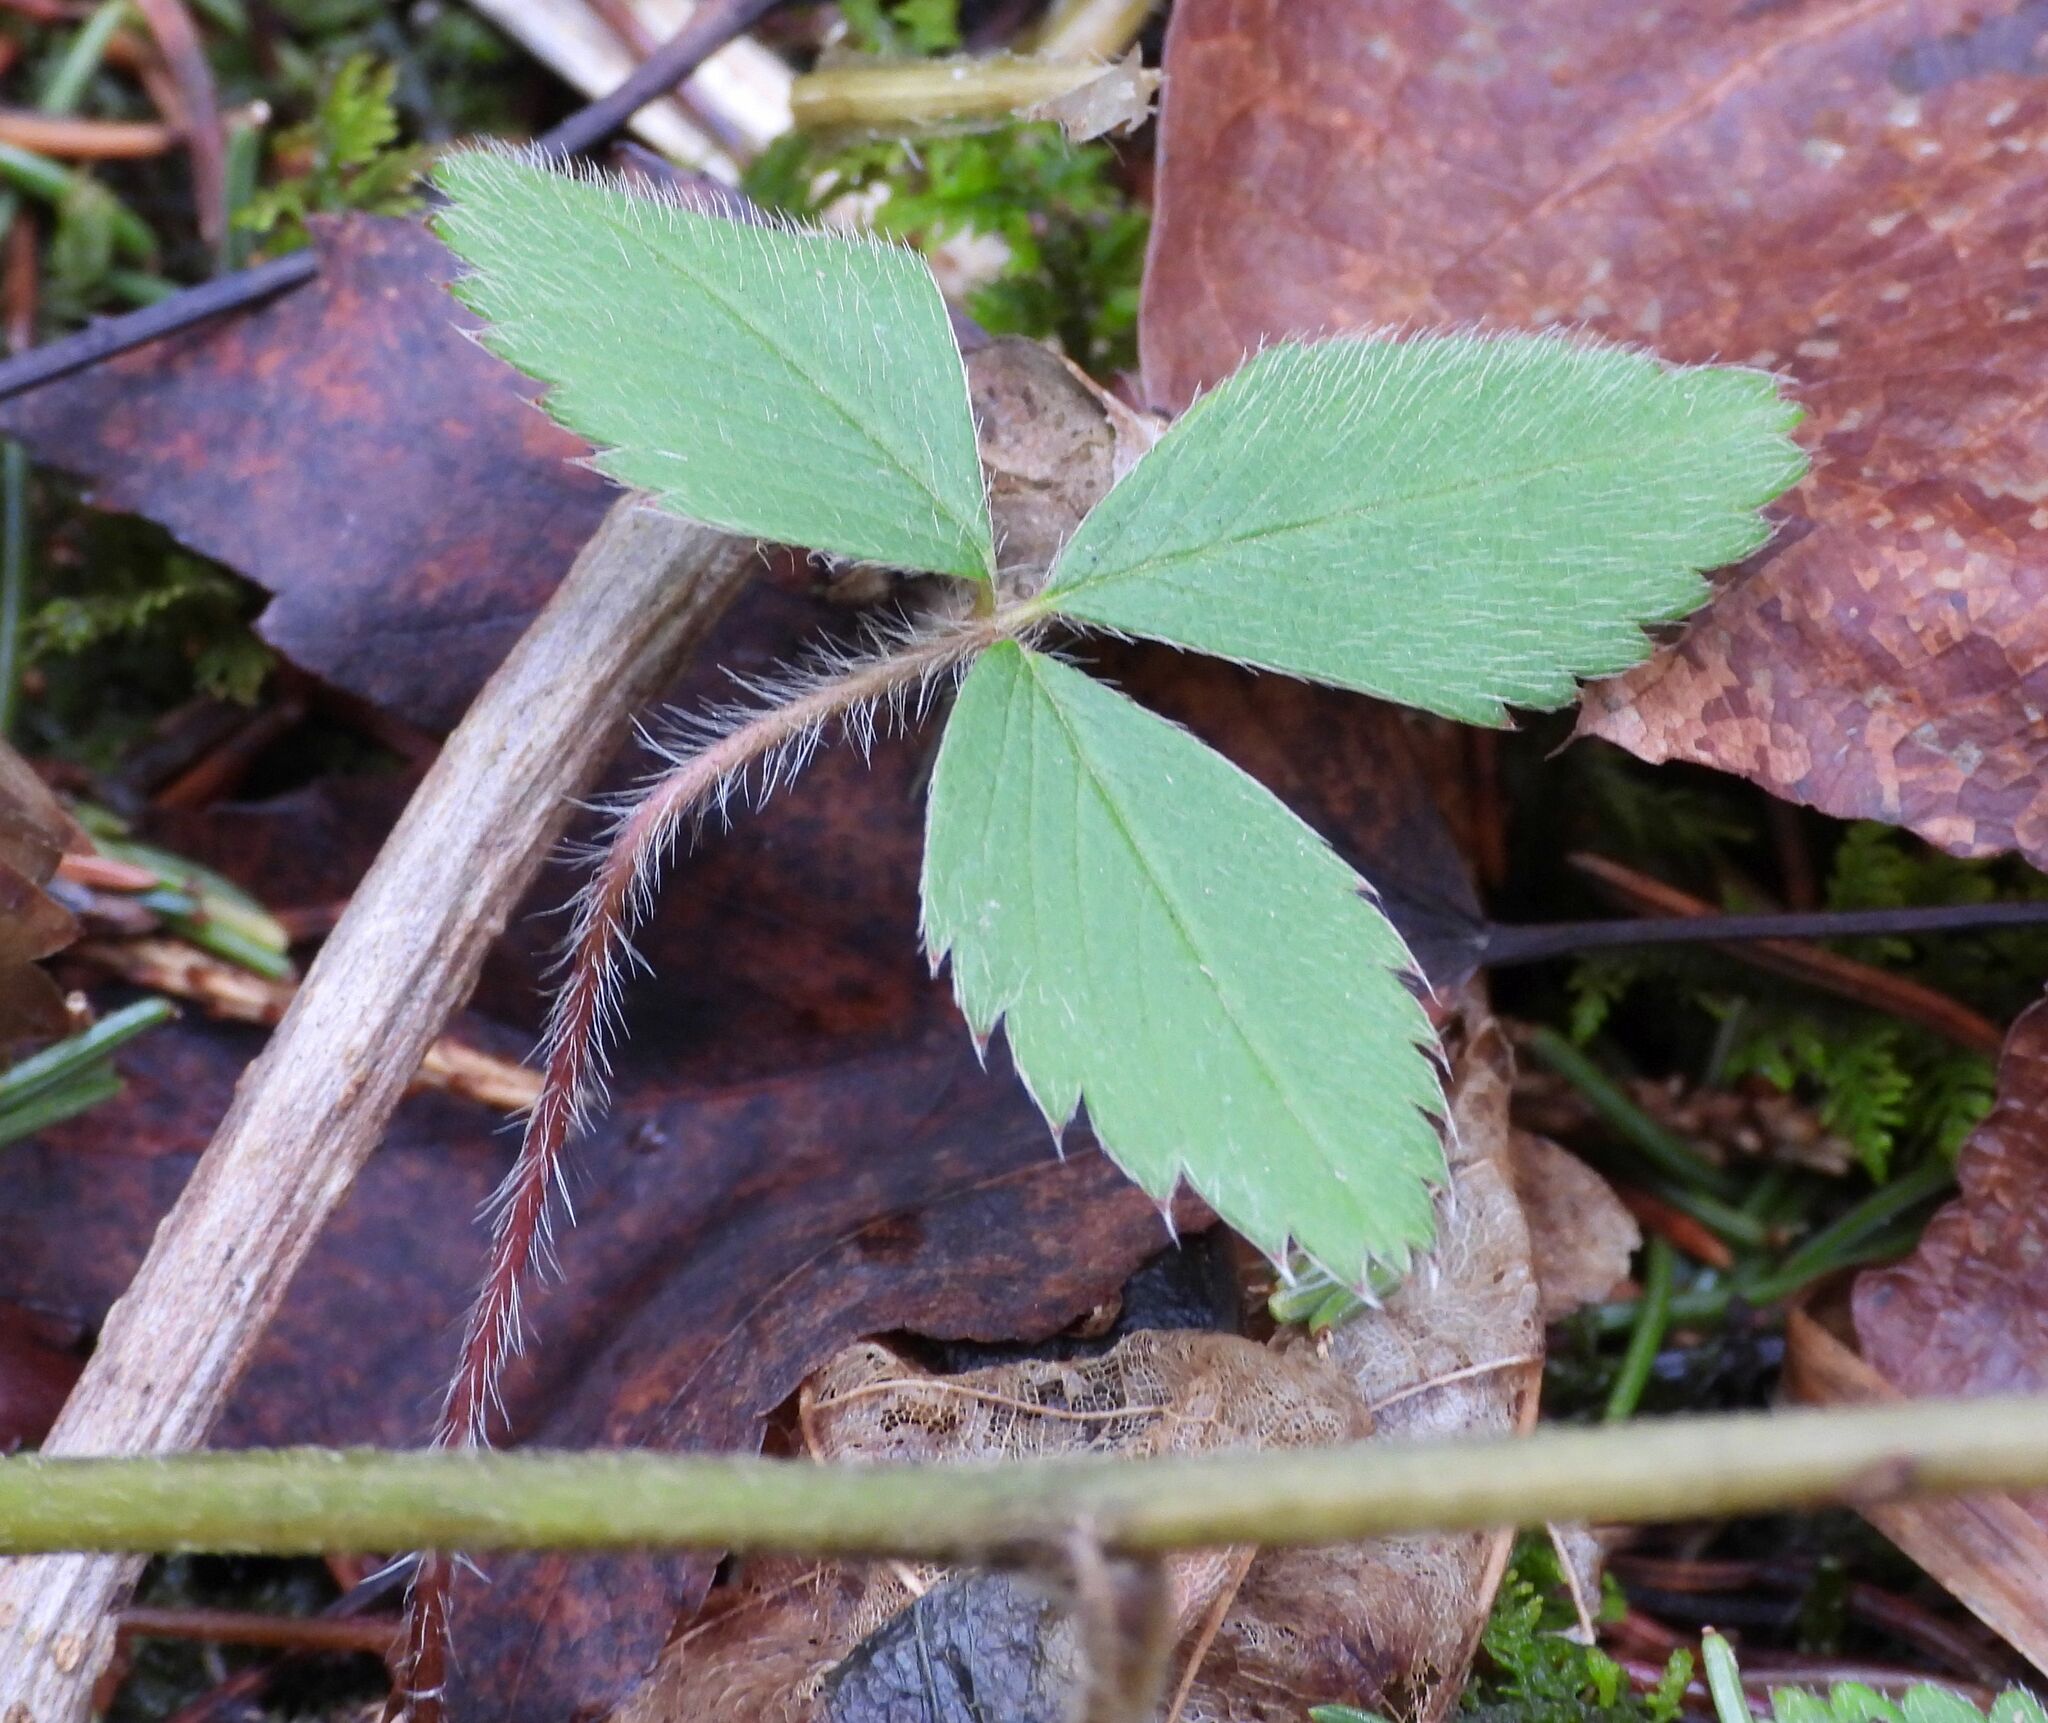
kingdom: Plantae
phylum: Tracheophyta
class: Magnoliopsida
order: Rosales
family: Rosaceae
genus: Fragaria
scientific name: Fragaria virginiana
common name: Thickleaved wild strawberry
